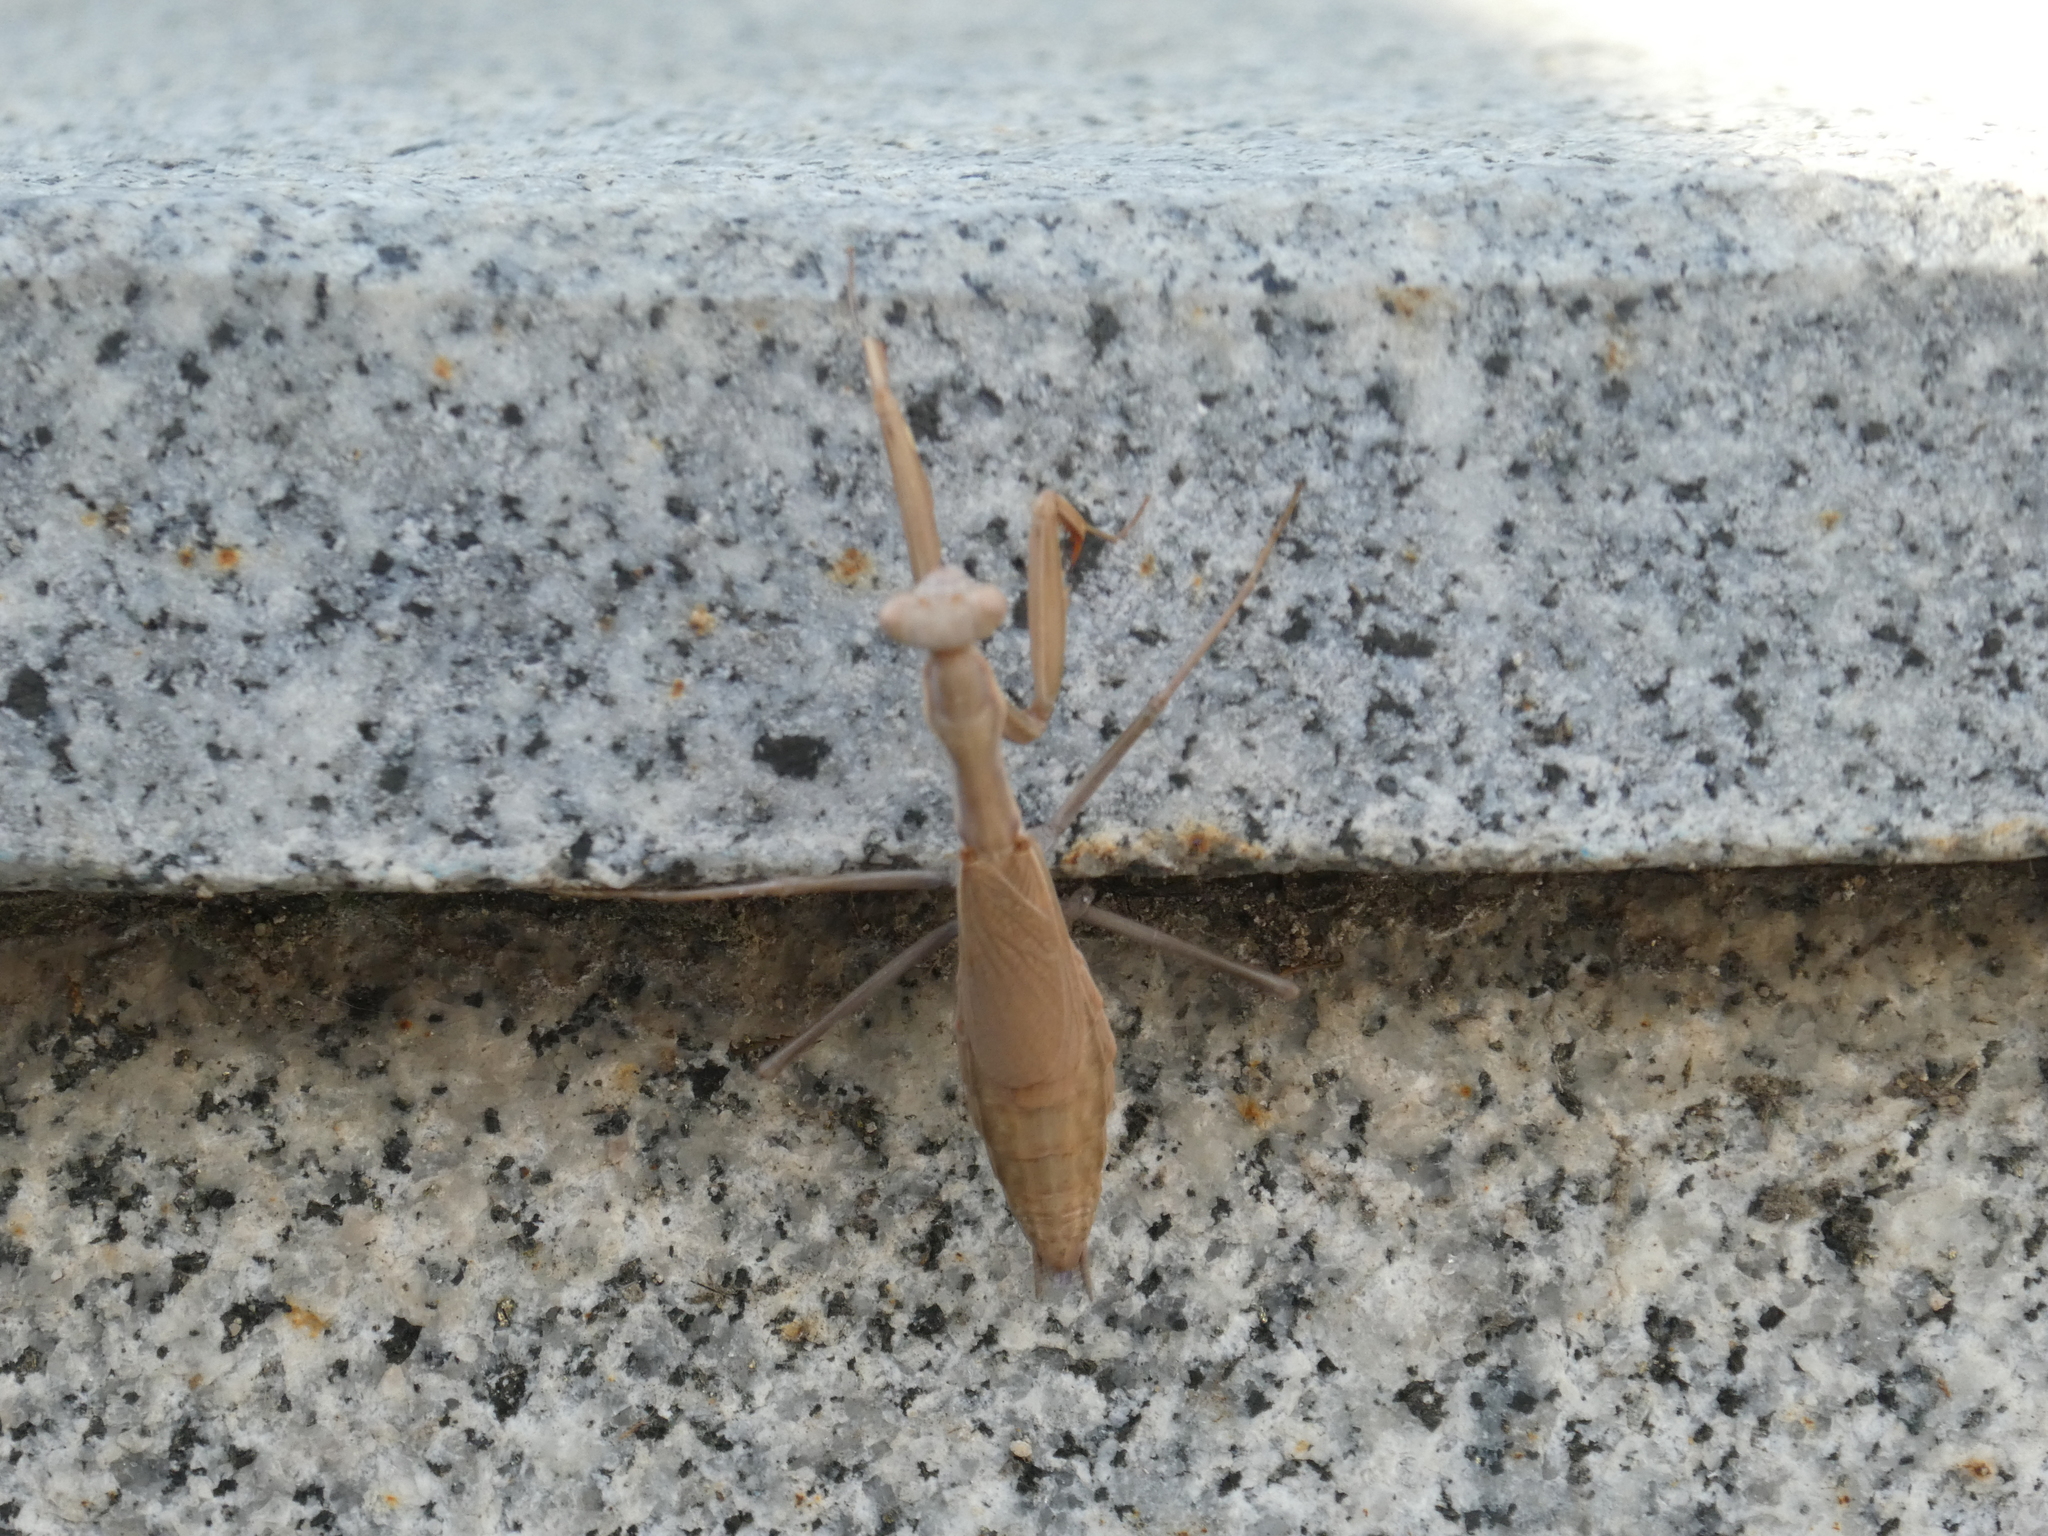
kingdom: Animalia
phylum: Arthropoda
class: Insecta
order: Mantodea
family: Eremiaphilidae
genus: Iris
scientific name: Iris polystictica
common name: Dot-winged mantis
